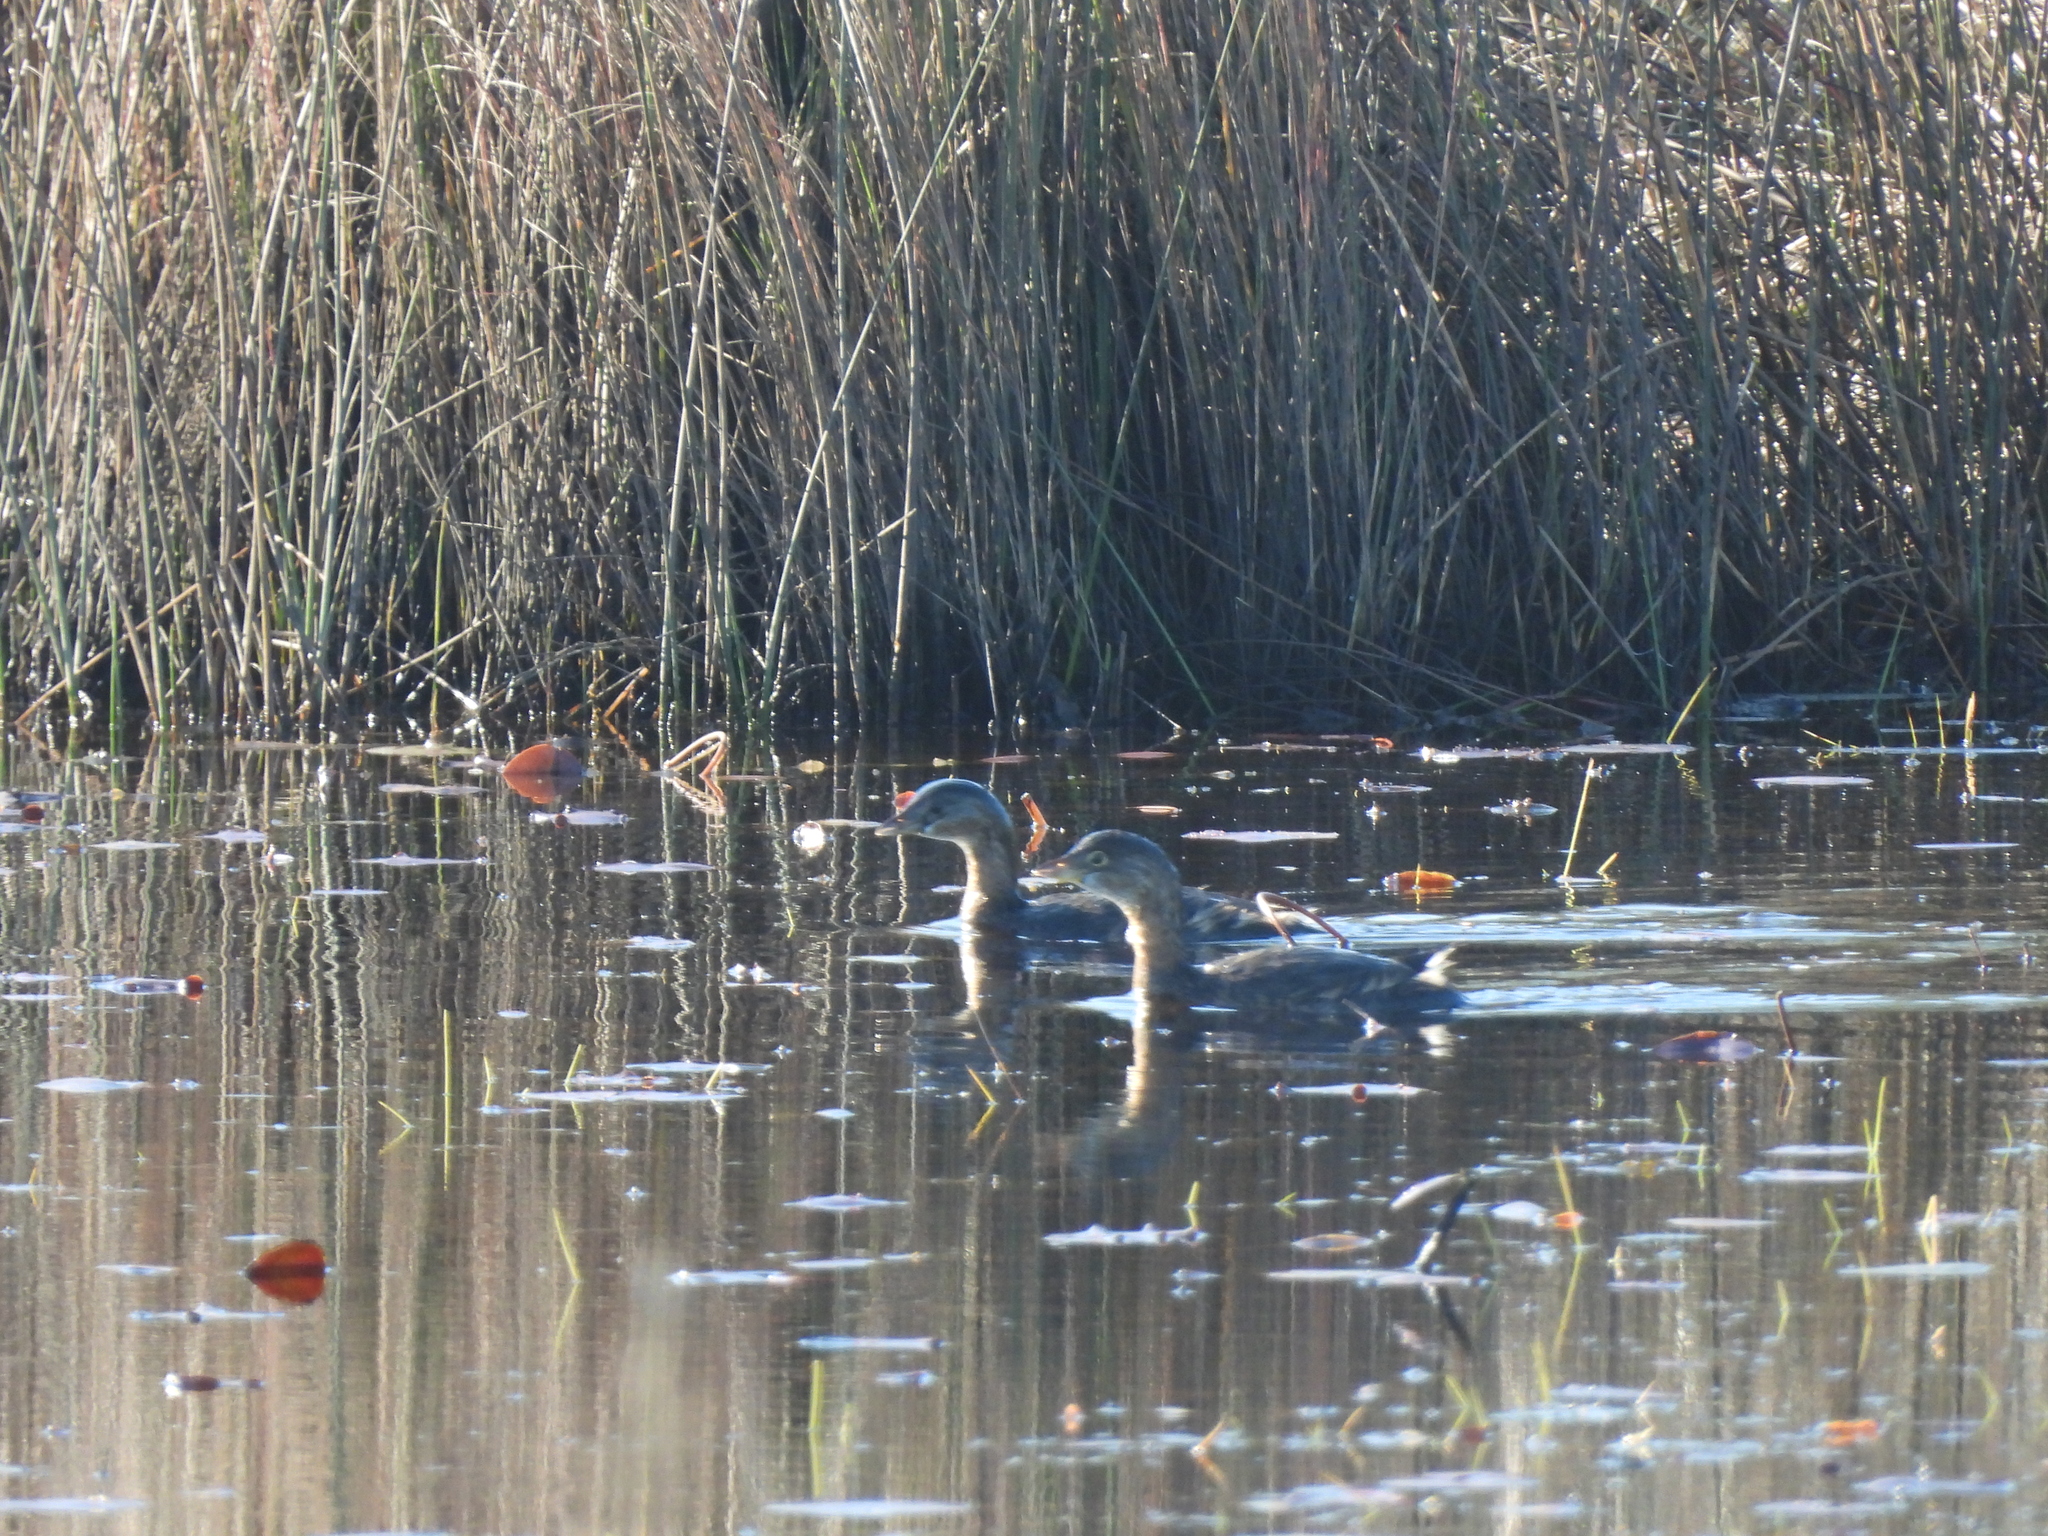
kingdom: Animalia
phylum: Chordata
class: Aves
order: Podicipediformes
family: Podicipedidae
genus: Podilymbus
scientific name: Podilymbus podiceps
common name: Pied-billed grebe
